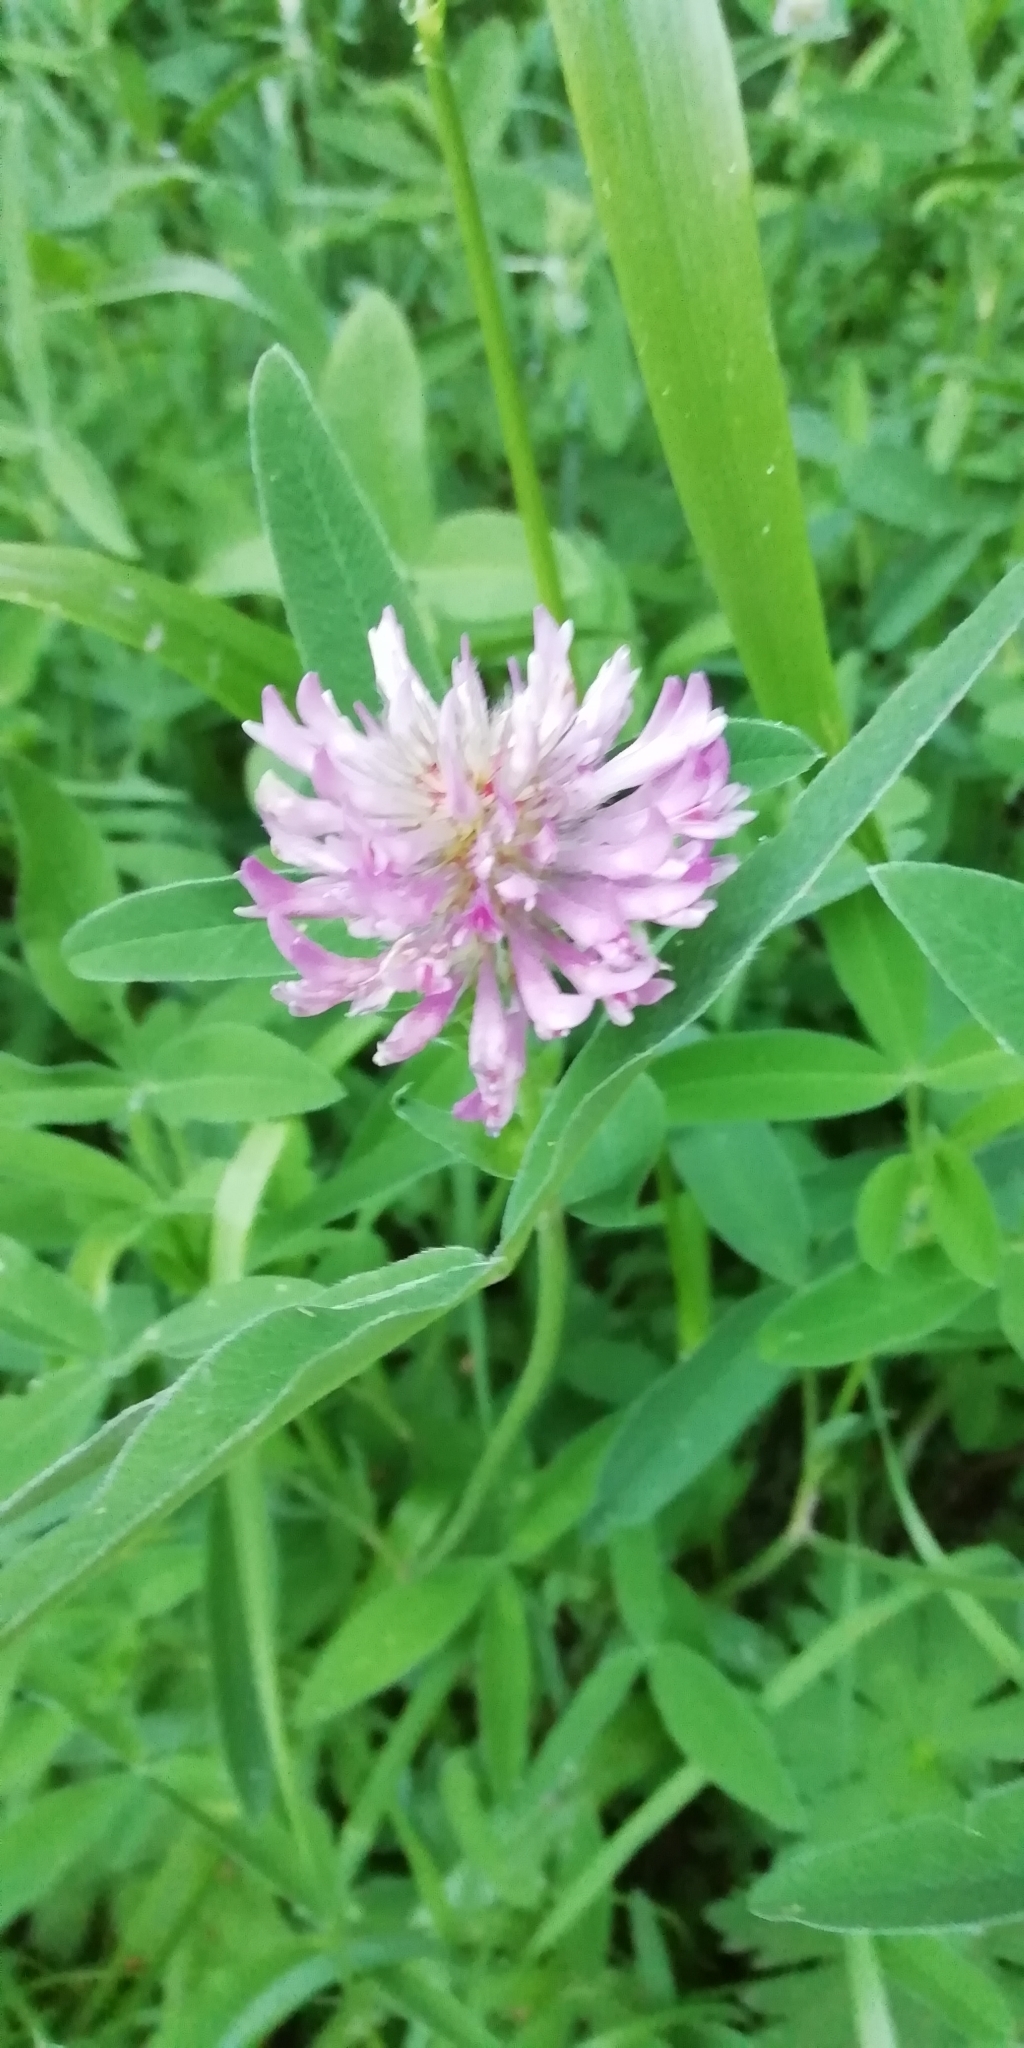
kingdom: Plantae
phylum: Tracheophyta
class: Magnoliopsida
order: Fabales
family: Fabaceae
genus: Trifolium
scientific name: Trifolium medium
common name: Zigzag clover
